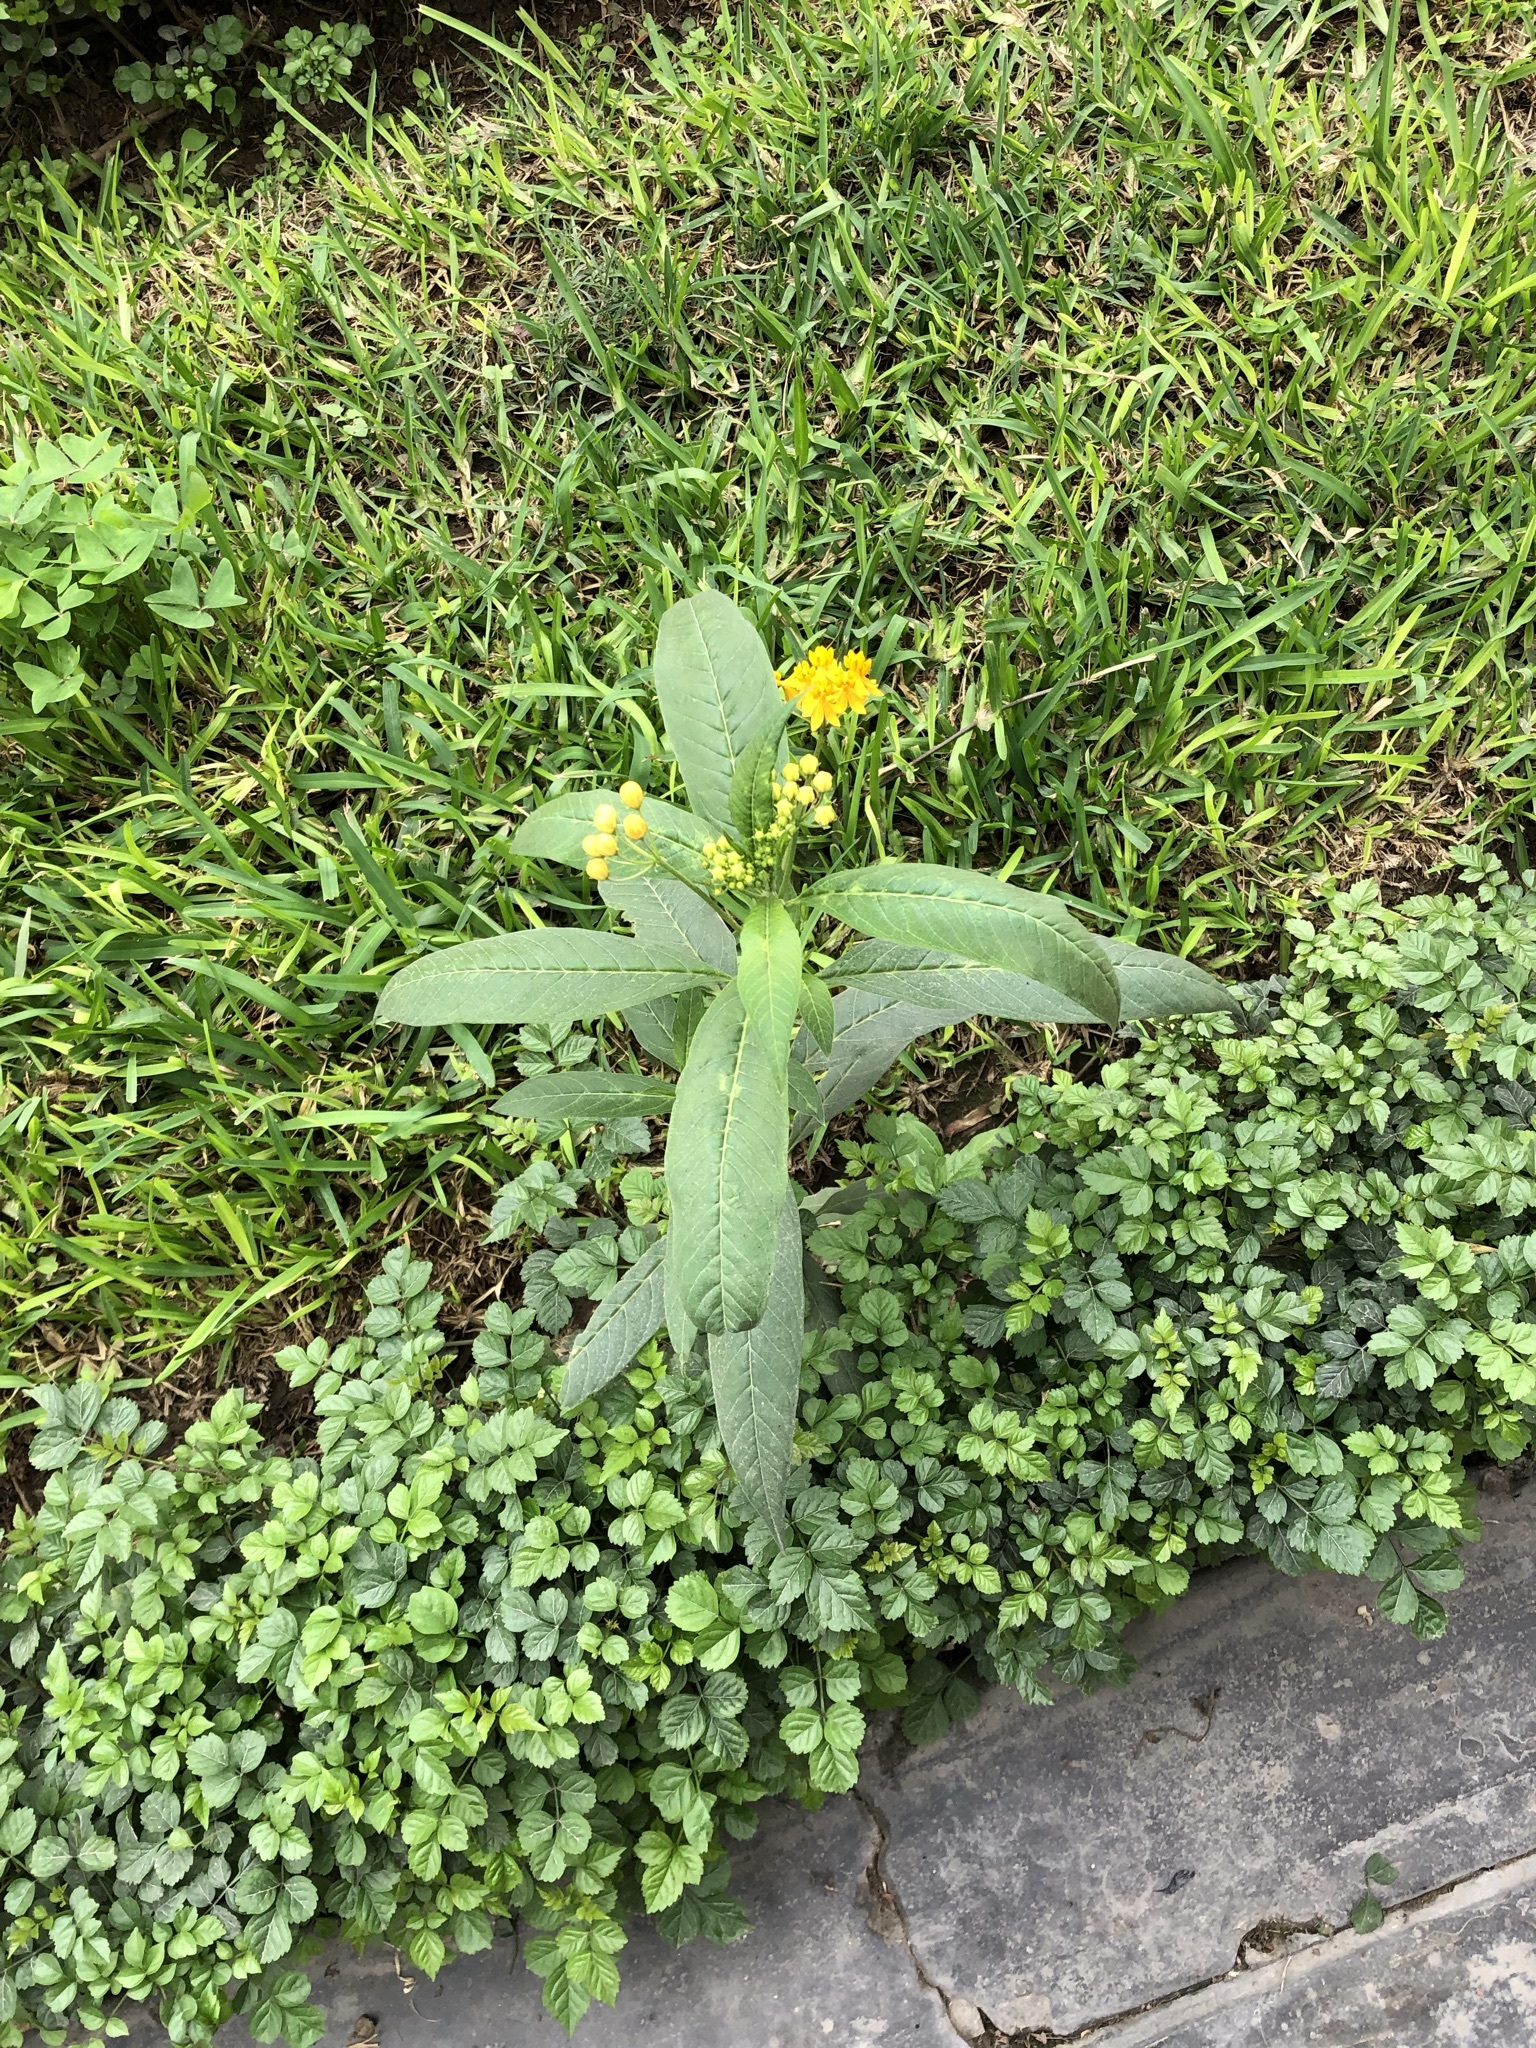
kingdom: Plantae
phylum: Tracheophyta
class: Magnoliopsida
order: Gentianales
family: Apocynaceae
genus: Asclepias
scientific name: Asclepias curassavica
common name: Bloodflower
